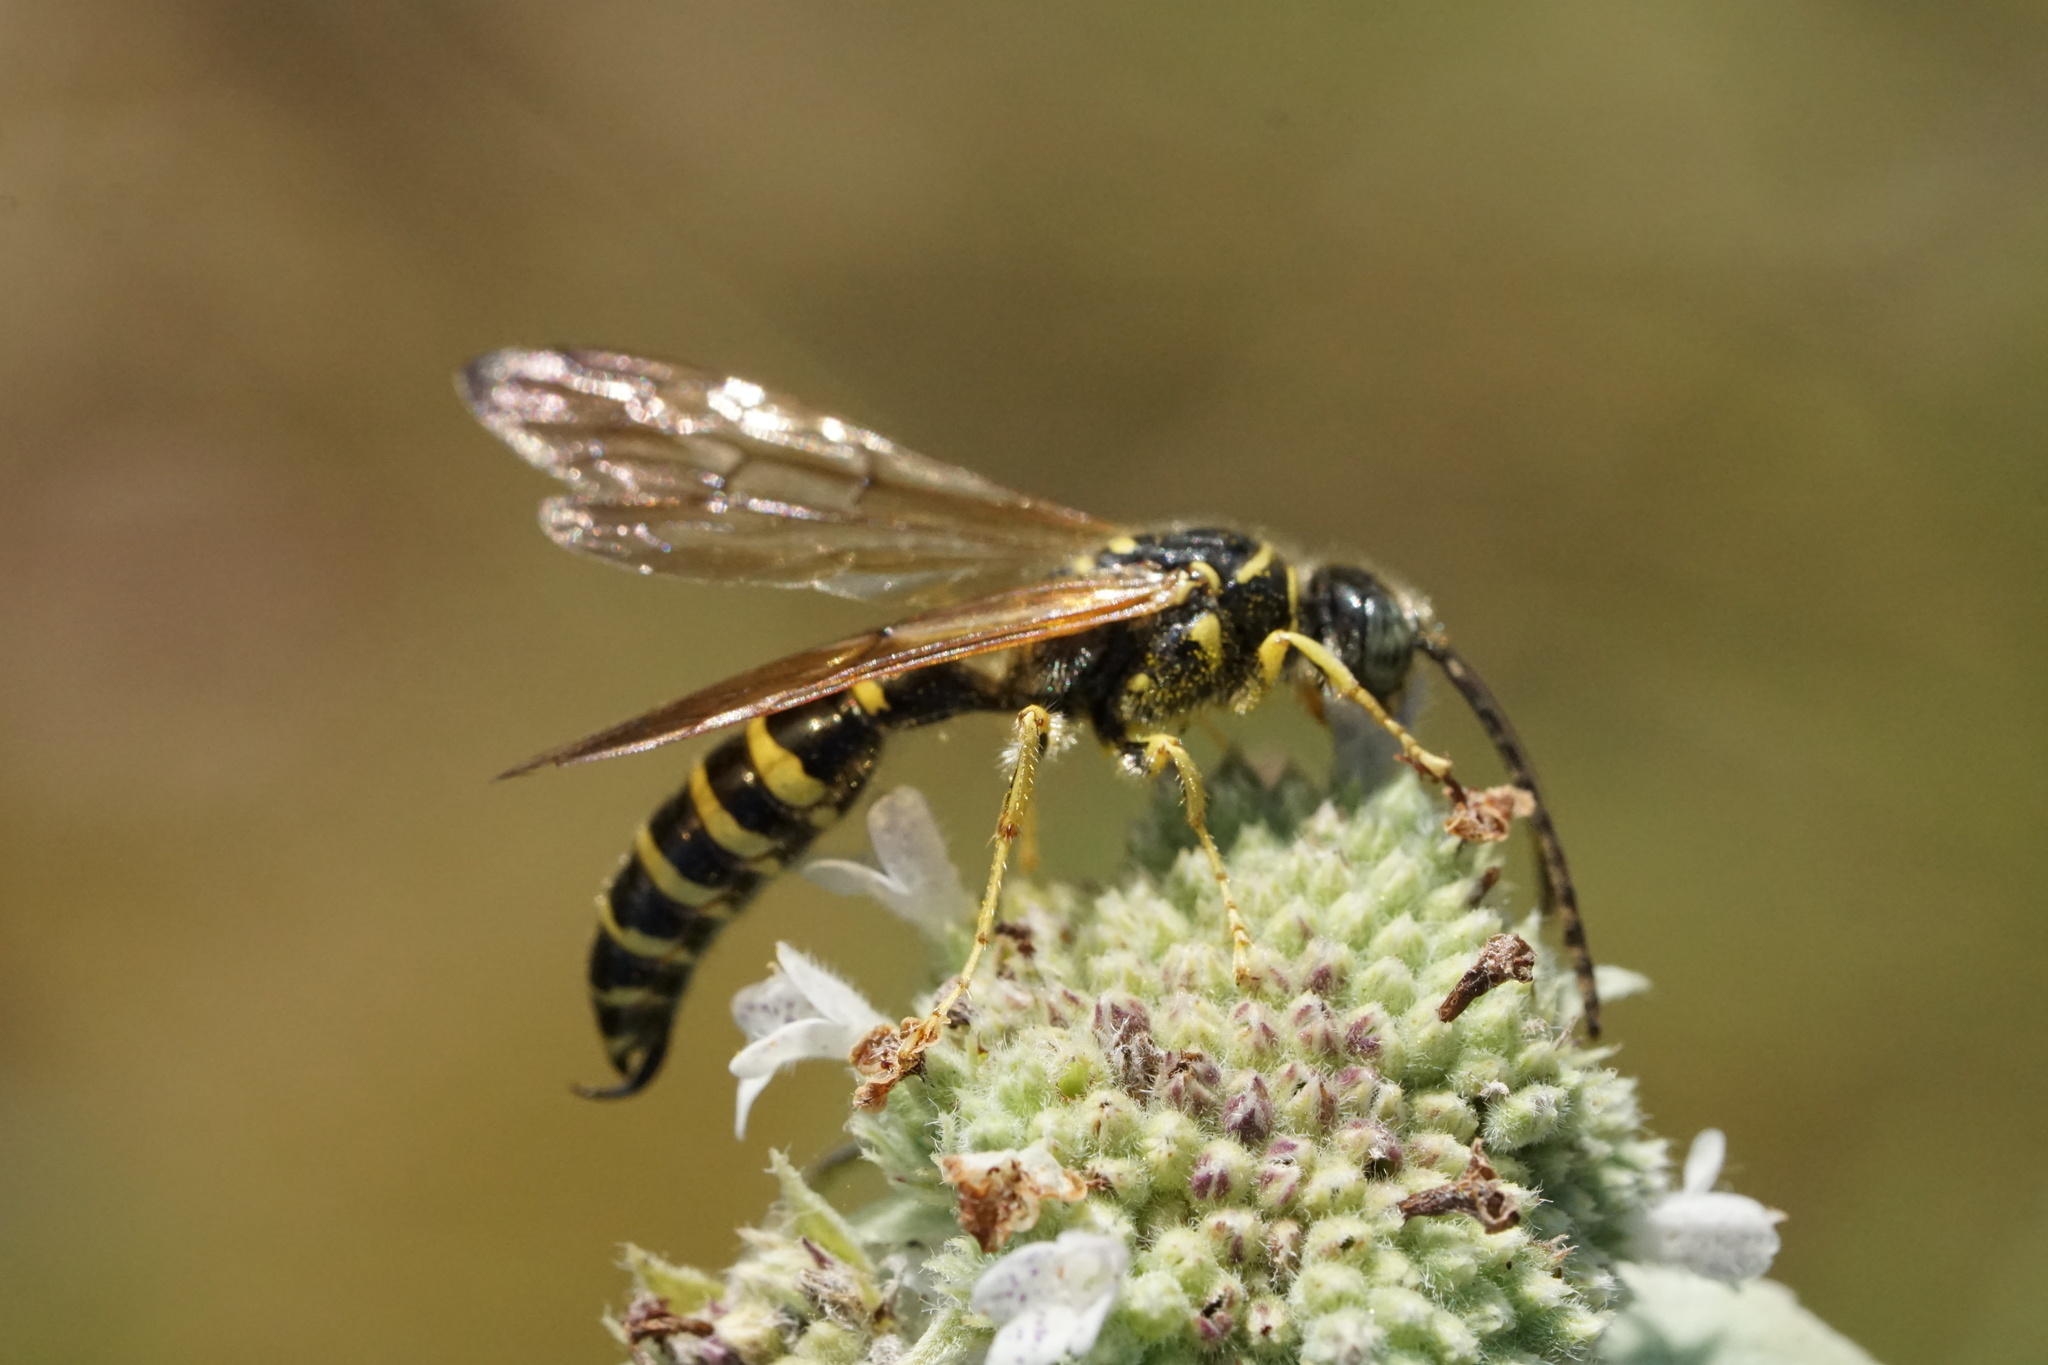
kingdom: Animalia
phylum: Arthropoda
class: Insecta
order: Hymenoptera
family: Tiphiidae
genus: Myzinum
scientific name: Myzinum quinquecinctum
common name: Five-banded thynnid wasp
